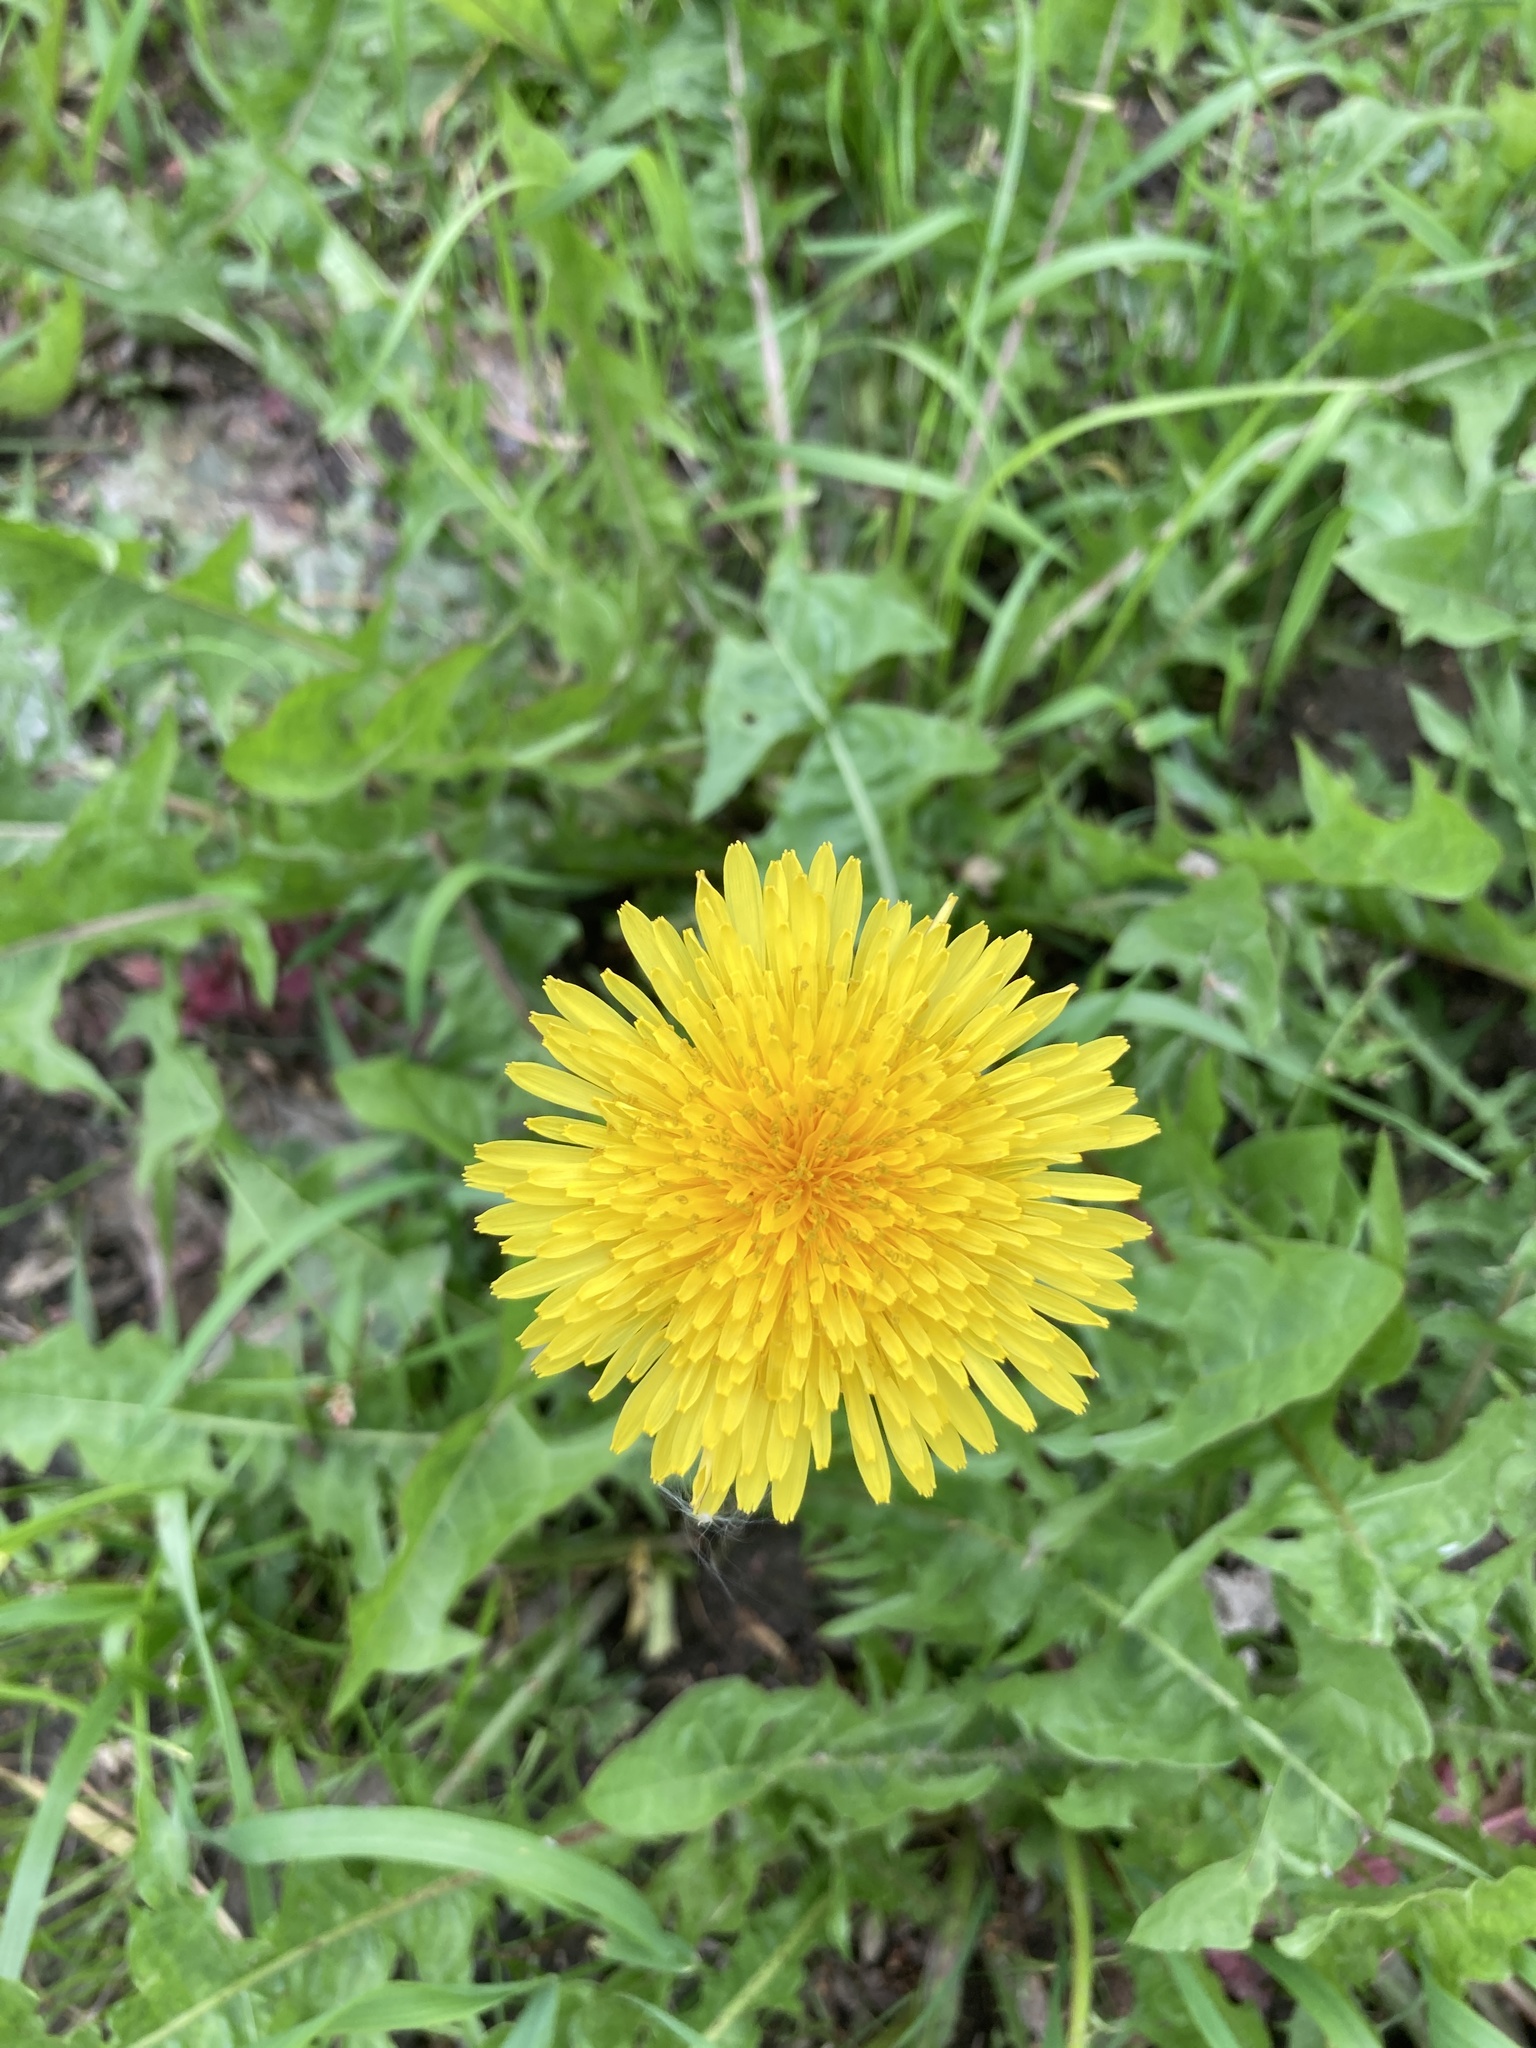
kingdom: Plantae
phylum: Tracheophyta
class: Magnoliopsida
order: Asterales
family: Asteraceae
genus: Taraxacum
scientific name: Taraxacum officinale
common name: Common dandelion
